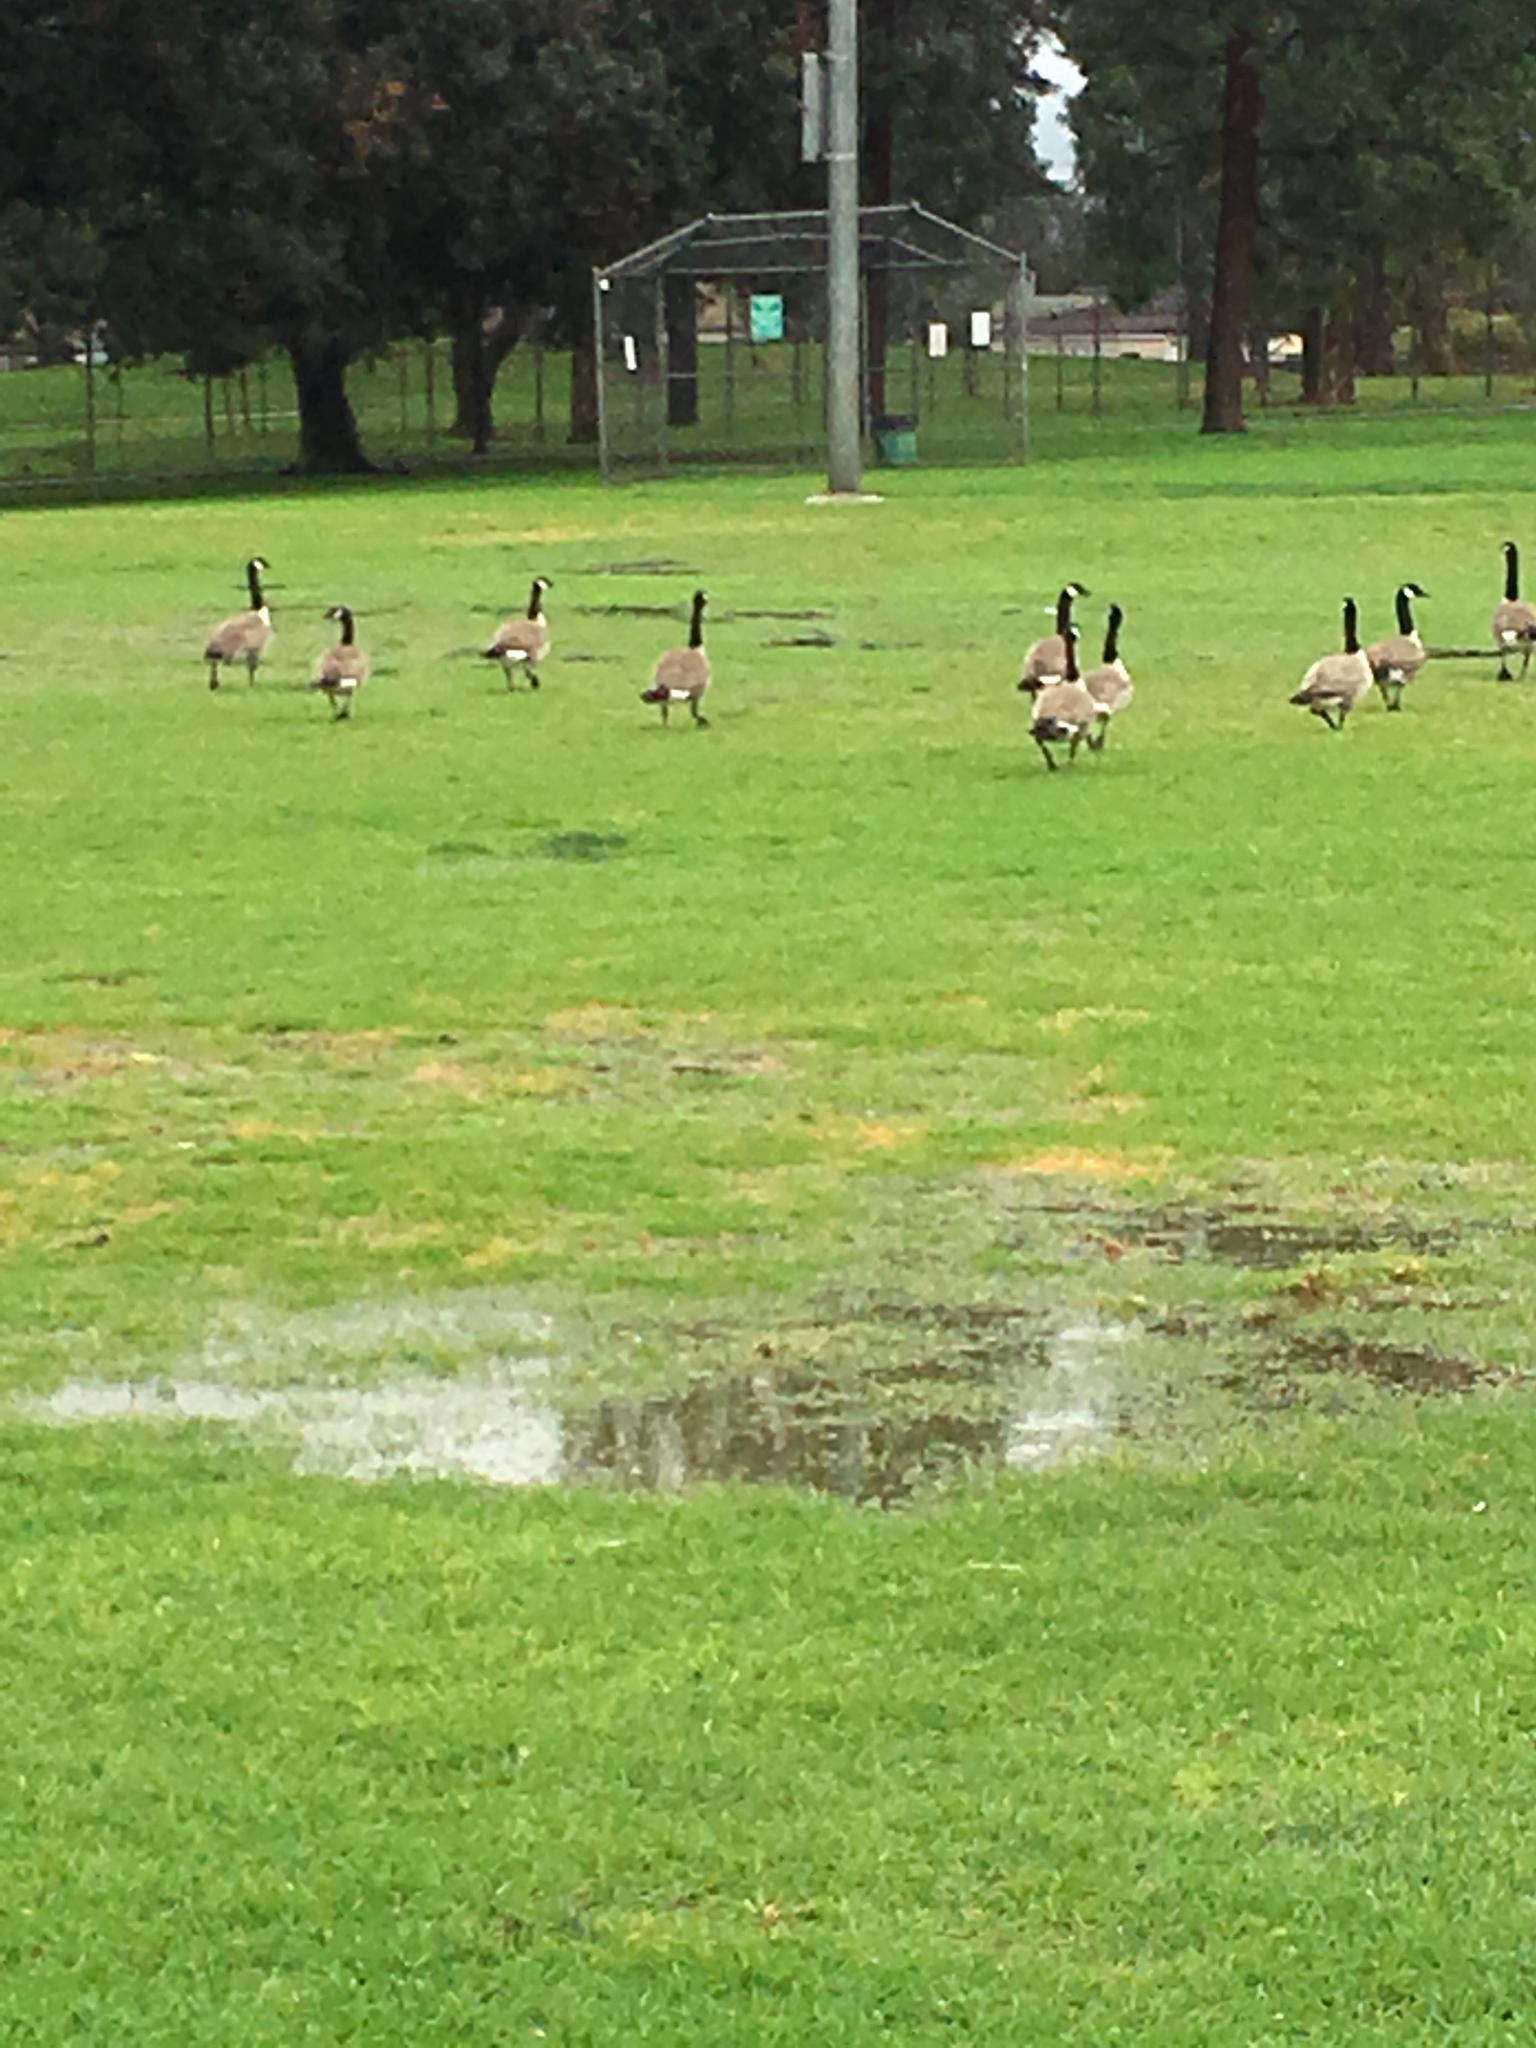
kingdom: Animalia
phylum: Chordata
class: Aves
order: Anseriformes
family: Anatidae
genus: Branta
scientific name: Branta canadensis
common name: Canada goose
